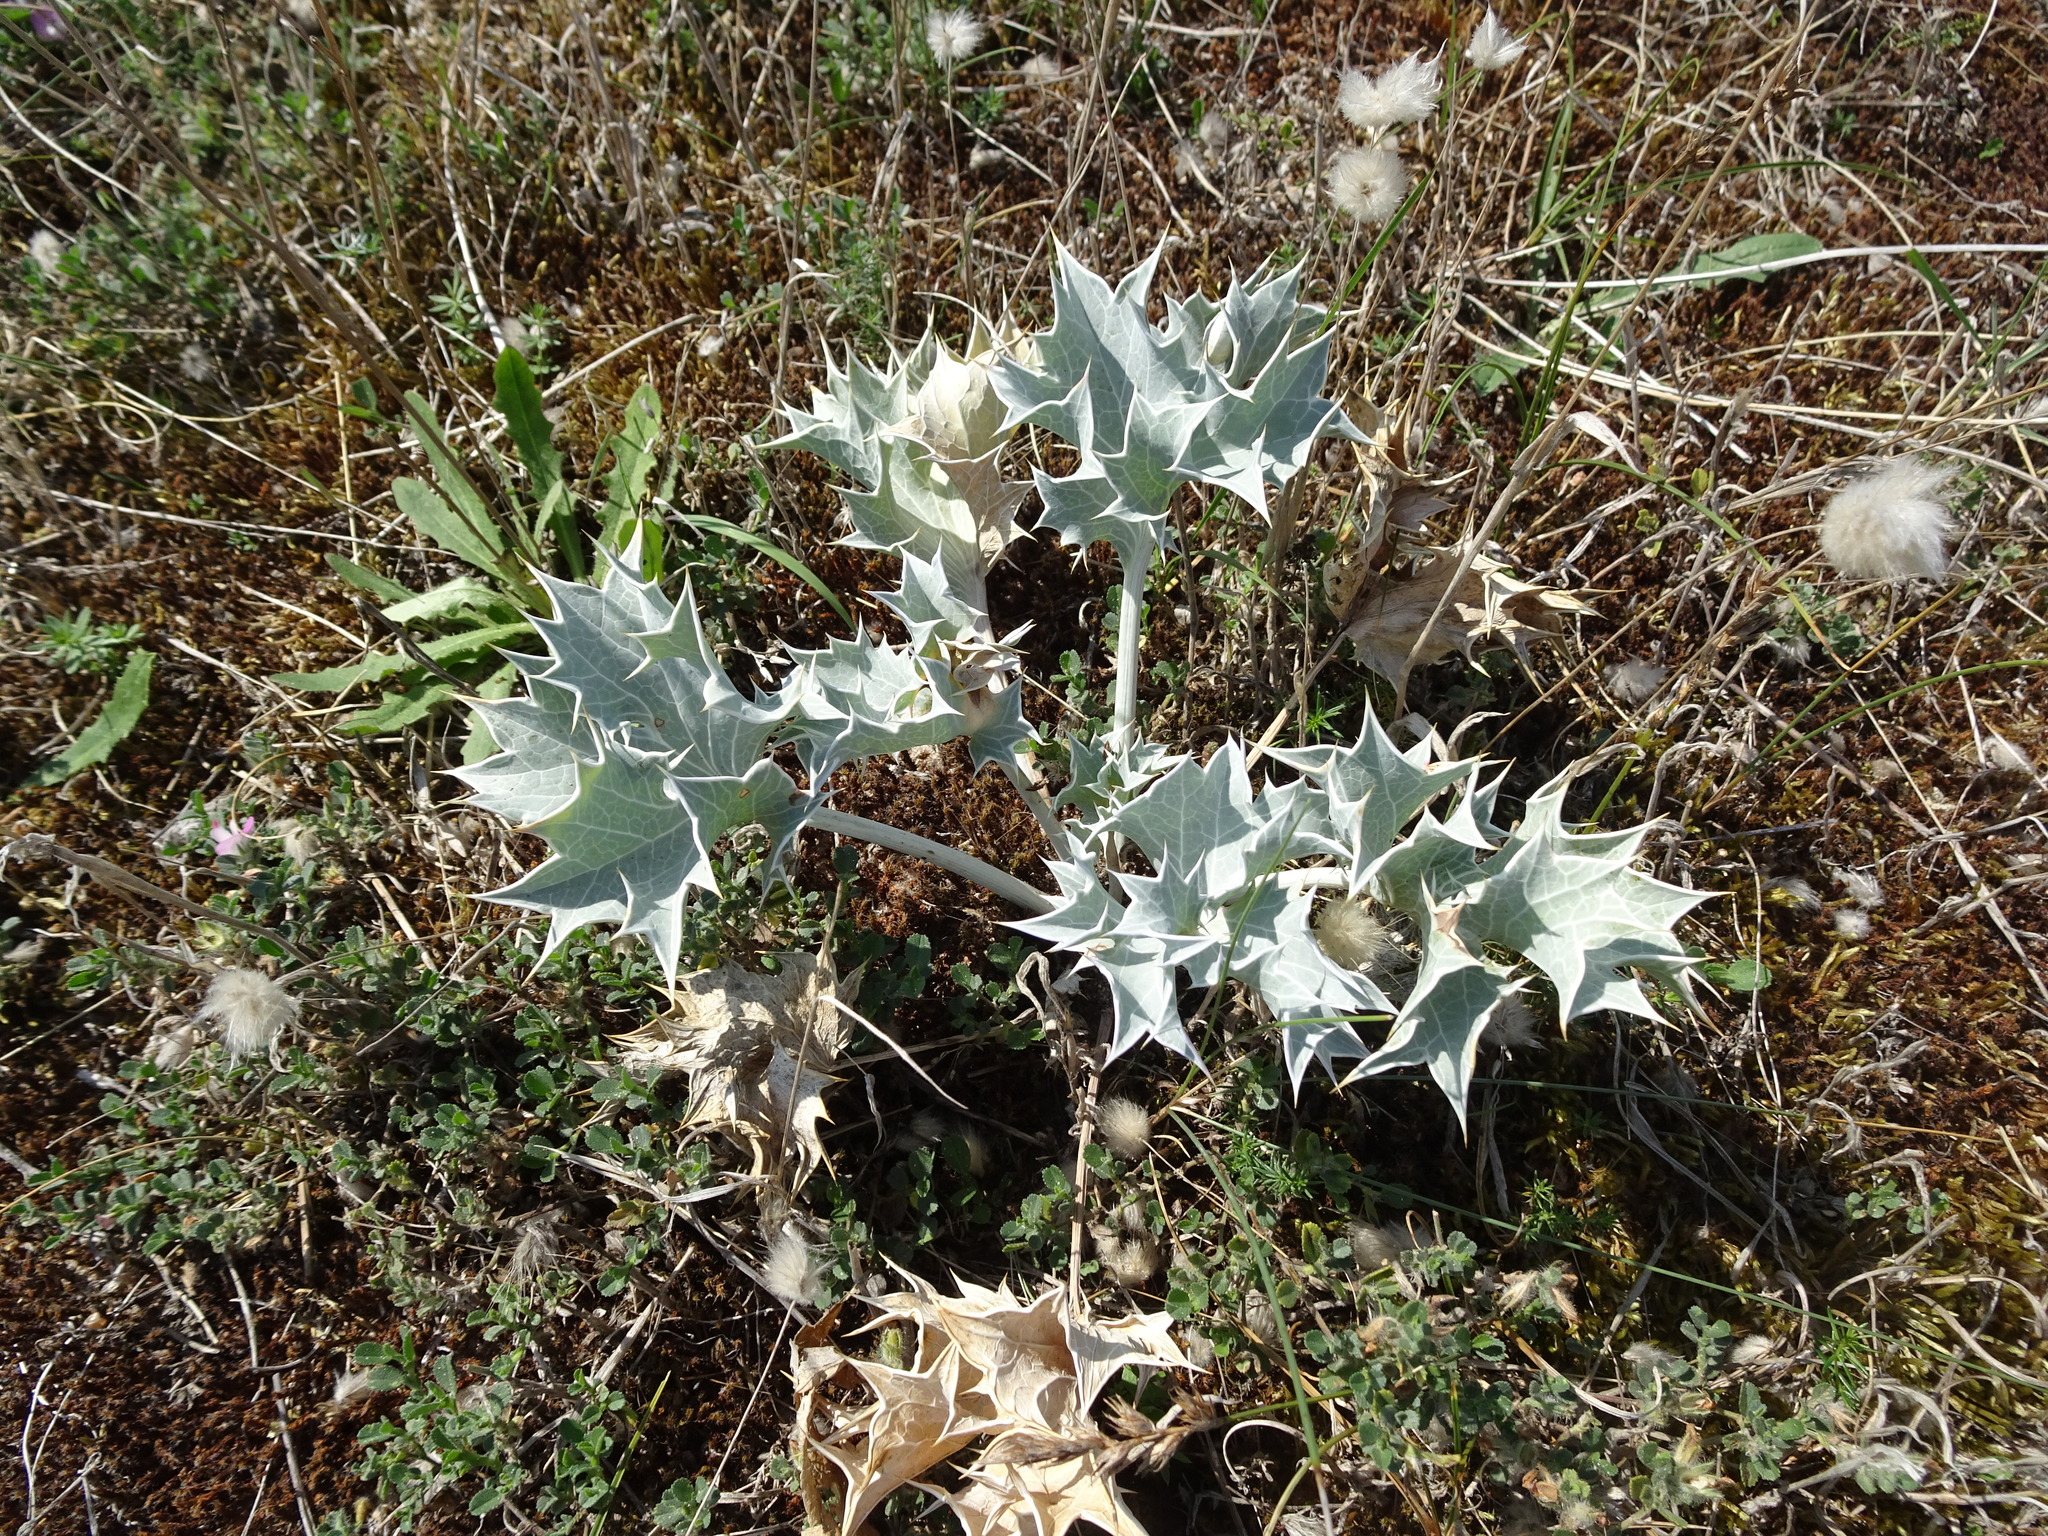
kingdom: Plantae
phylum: Tracheophyta
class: Magnoliopsida
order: Apiales
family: Apiaceae
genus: Eryngium
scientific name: Eryngium maritimum
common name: Sea-holly
